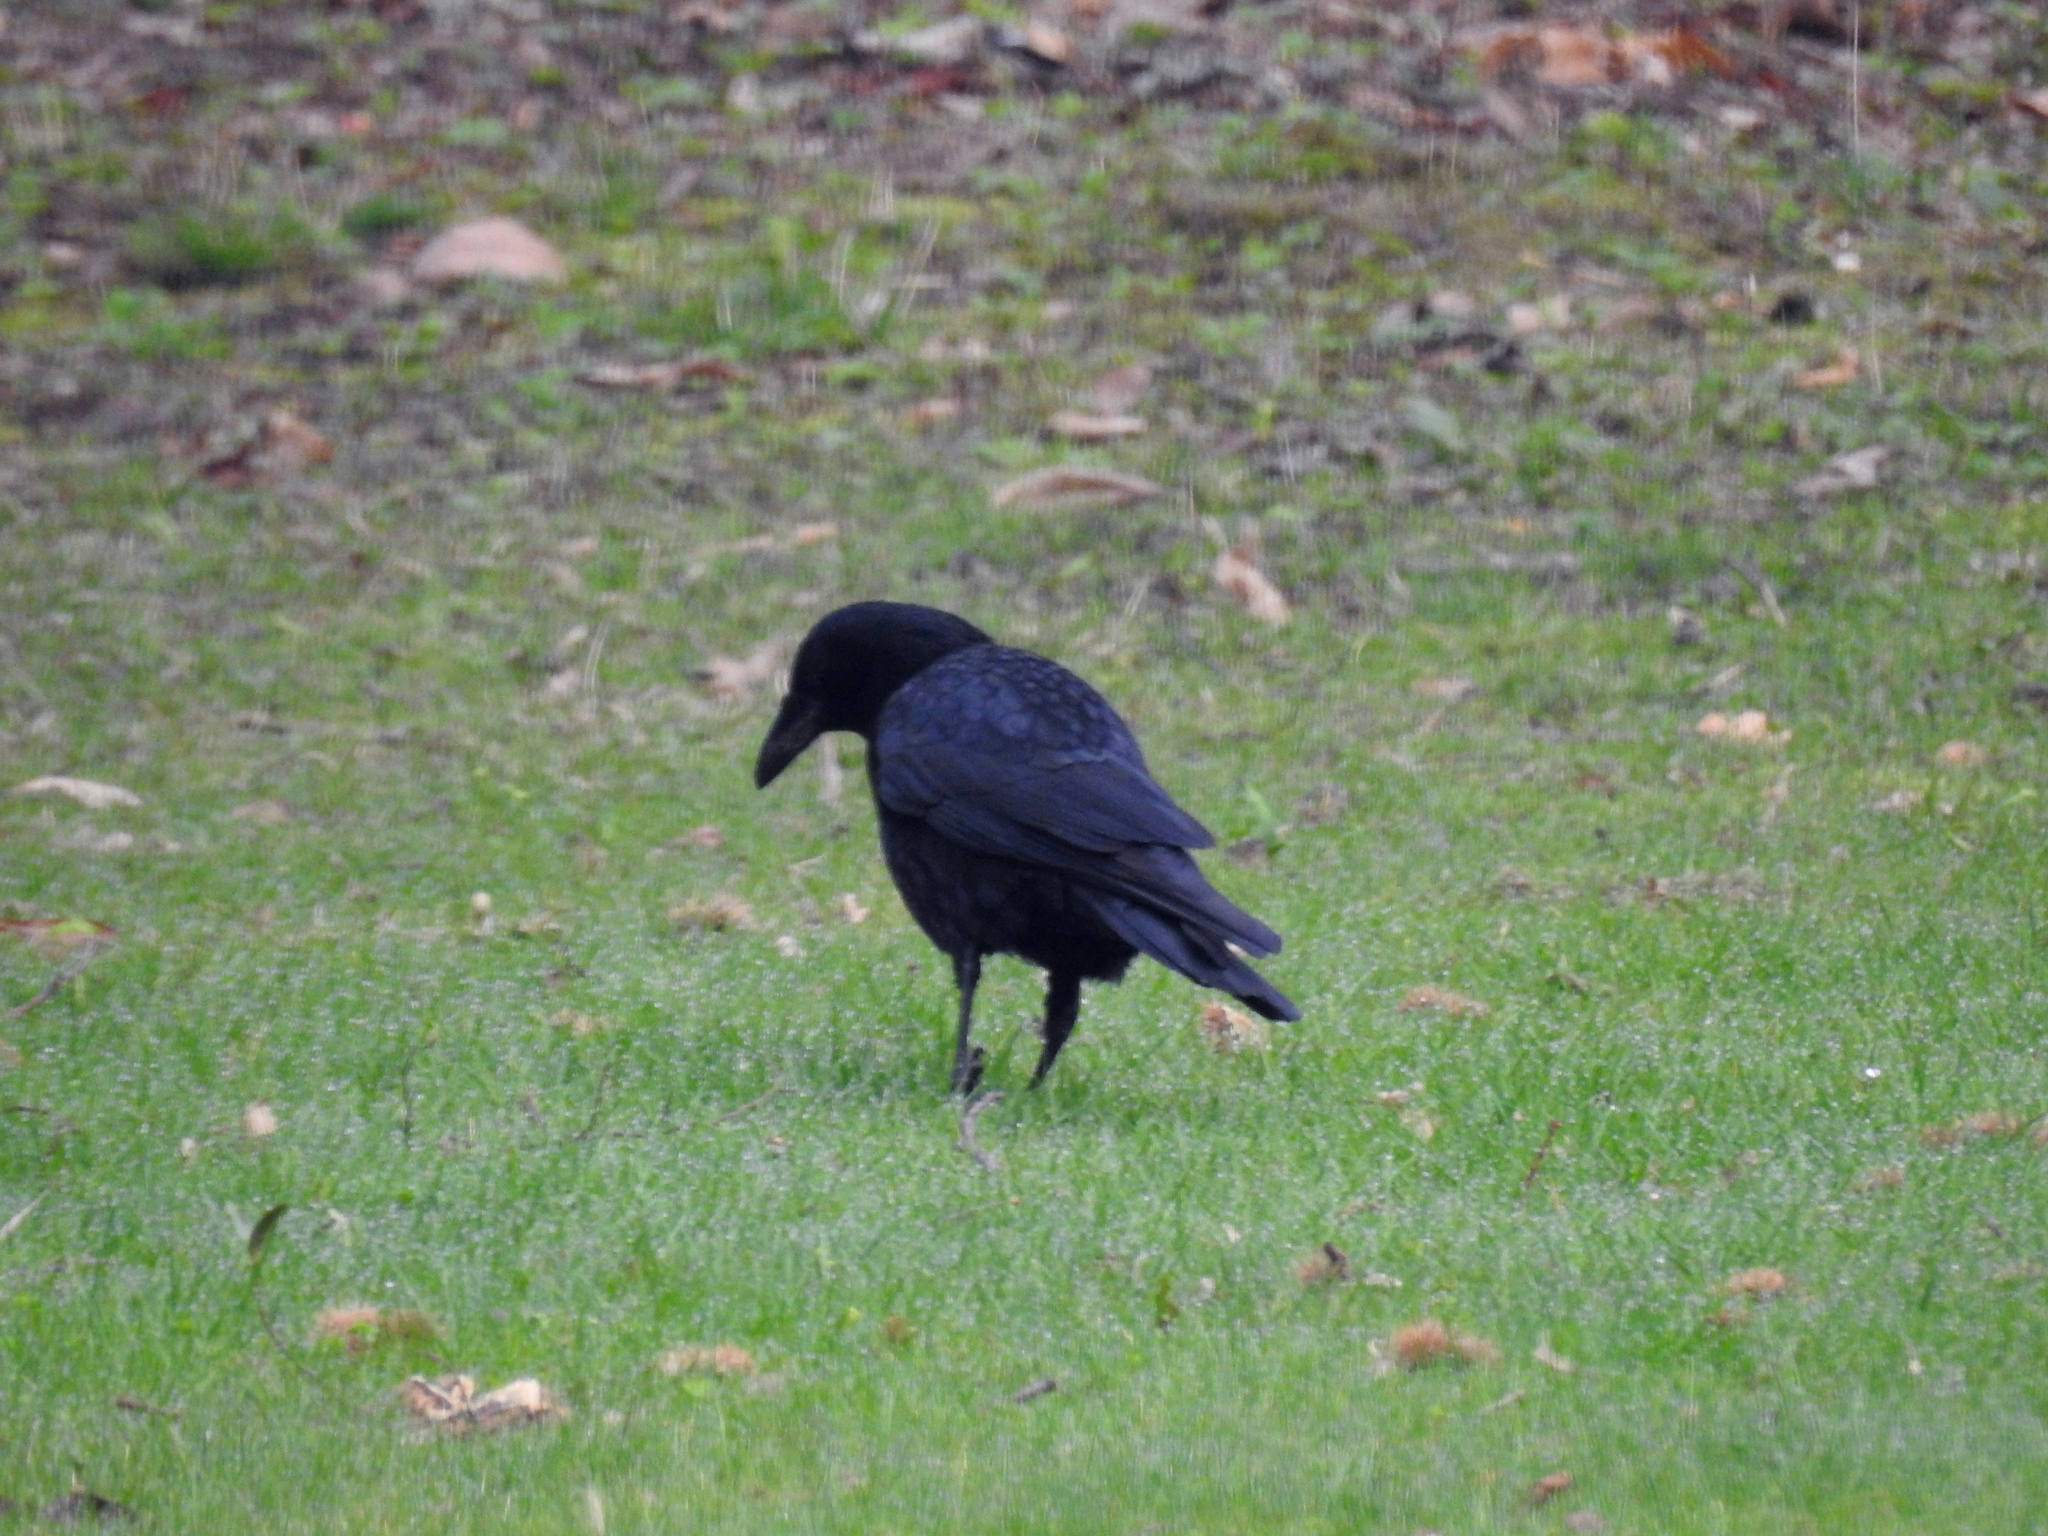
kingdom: Animalia
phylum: Chordata
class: Aves
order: Passeriformes
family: Corvidae
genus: Corvus
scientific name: Corvus corone
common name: Carrion crow
